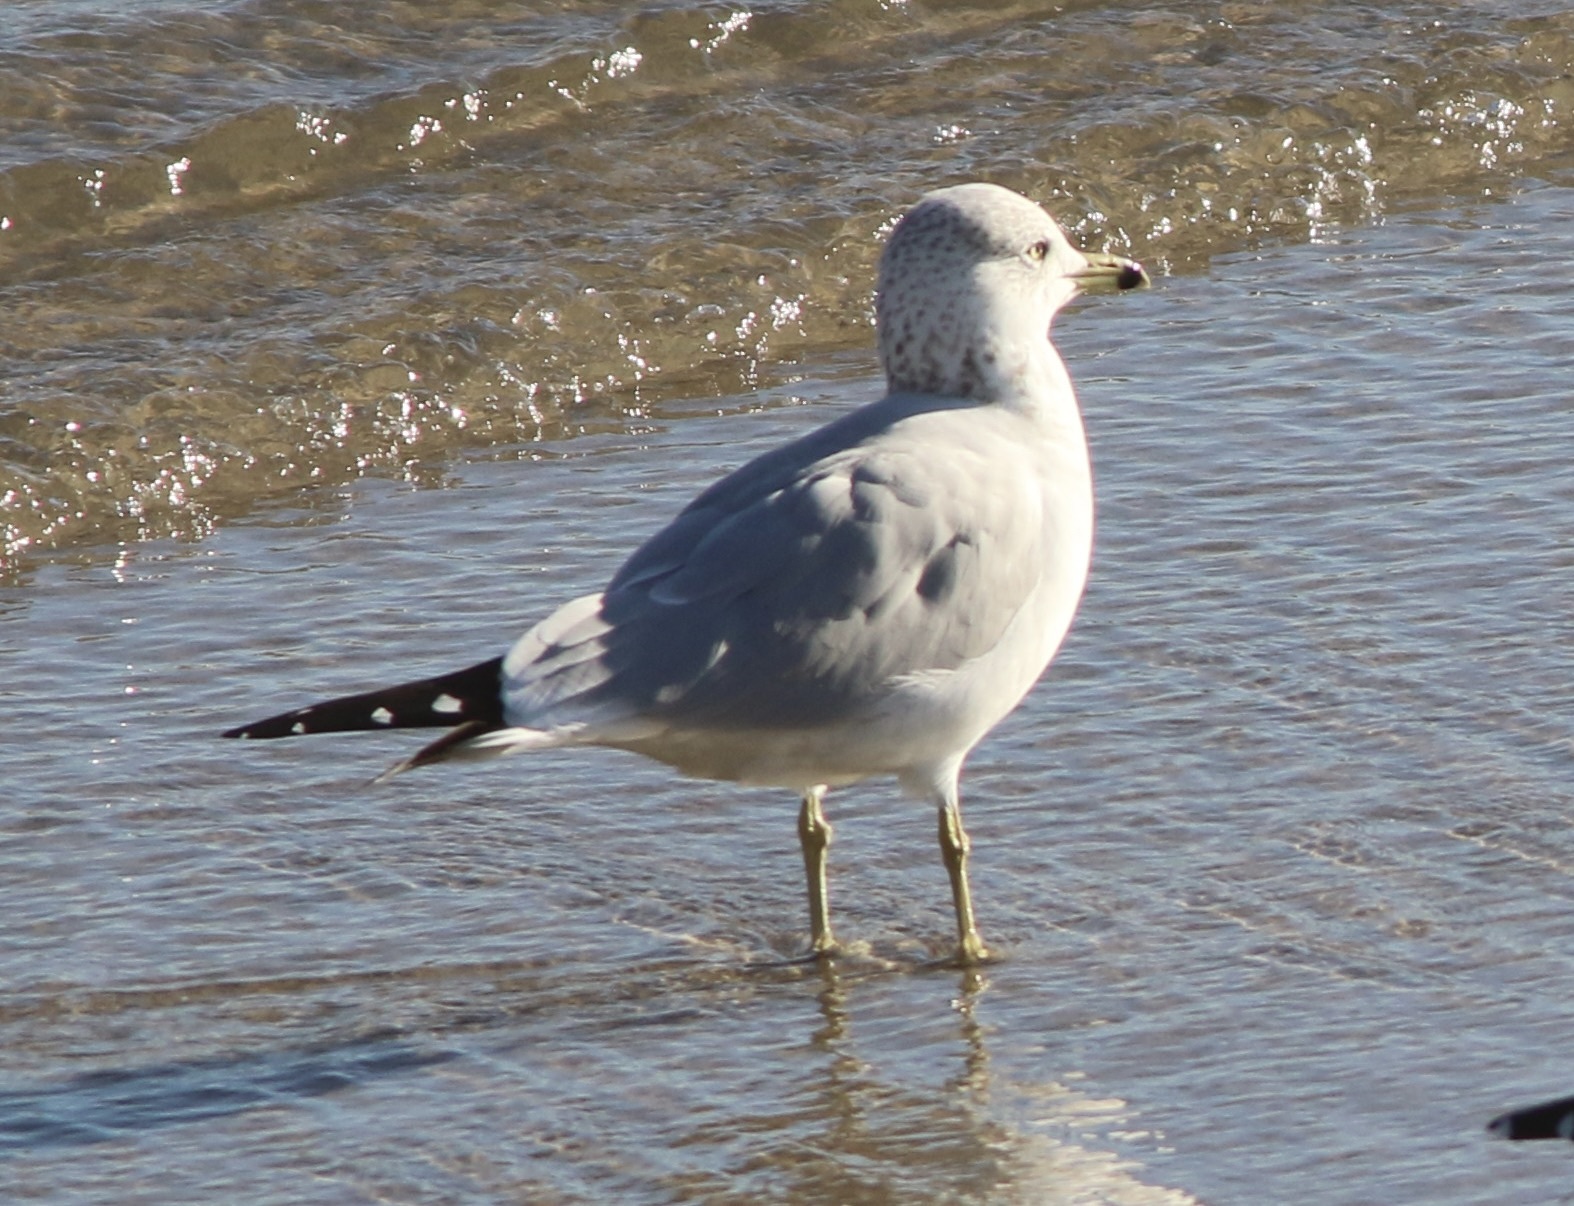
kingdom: Animalia
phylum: Chordata
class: Aves
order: Charadriiformes
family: Laridae
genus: Larus
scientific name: Larus delawarensis
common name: Ring-billed gull
